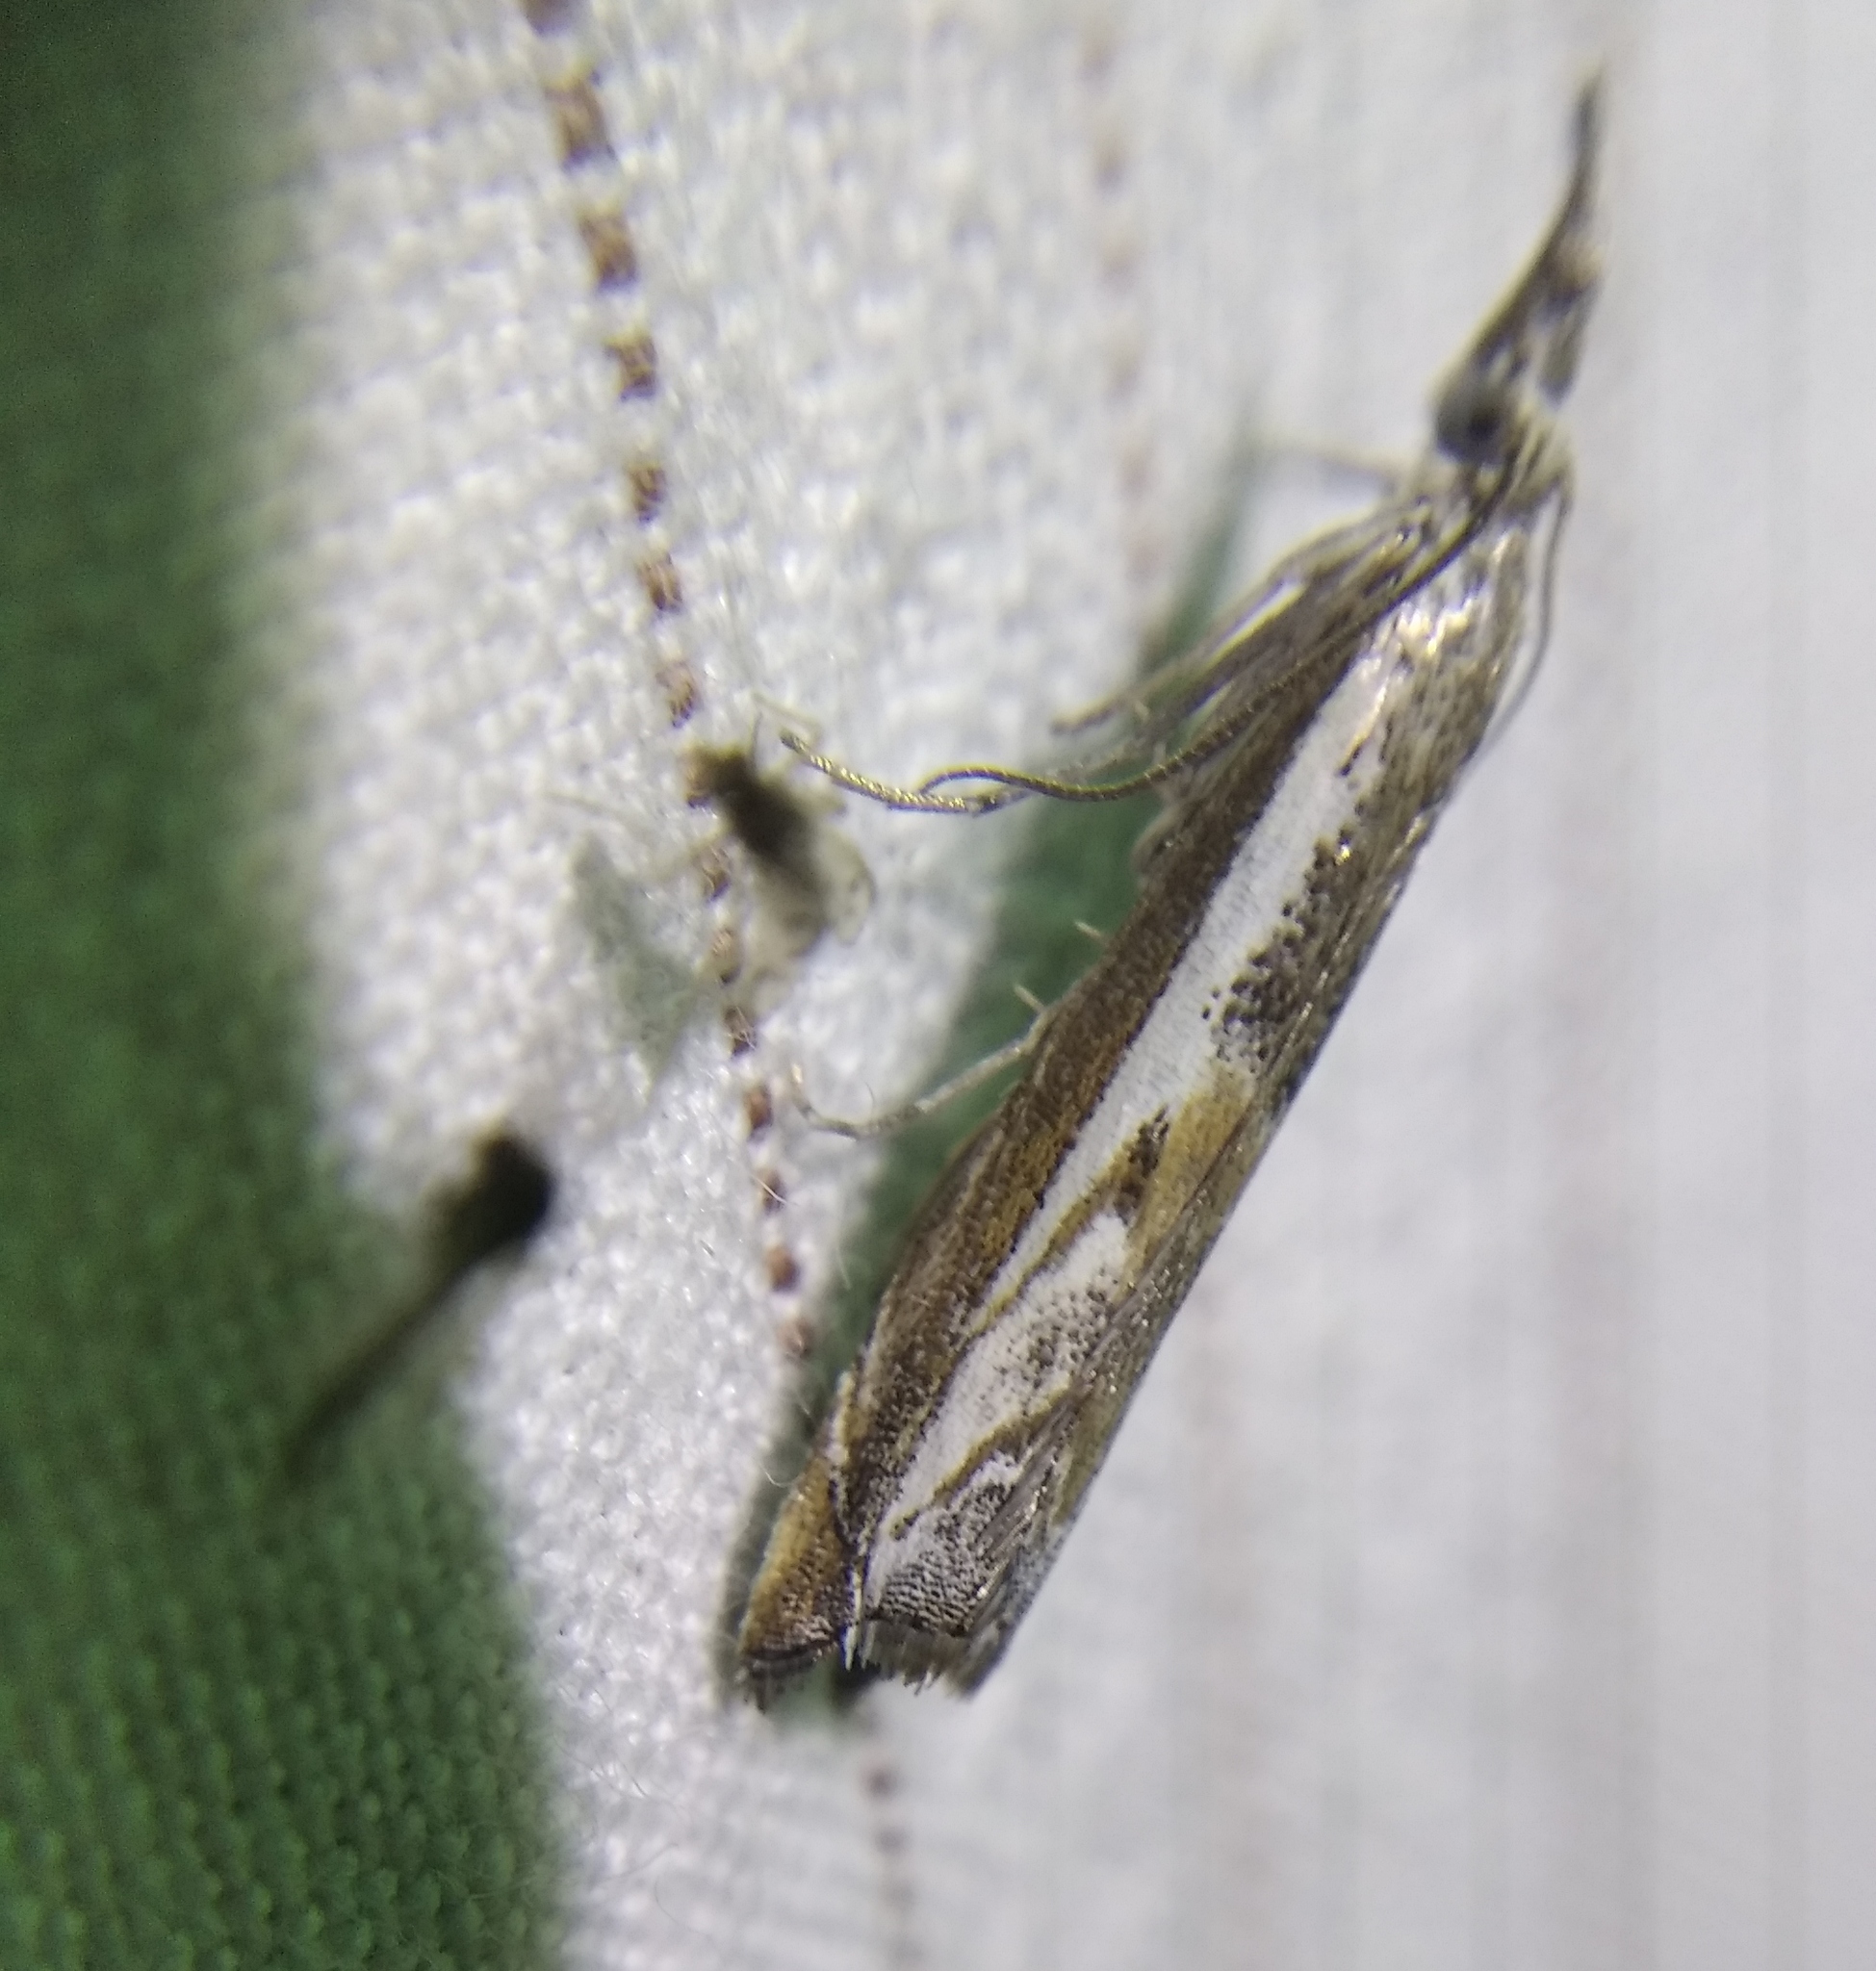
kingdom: Animalia
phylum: Arthropoda
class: Insecta
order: Lepidoptera
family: Crambidae
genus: Platytes
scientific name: Platytes alpinella
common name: Hook-tipped grass-veneer
